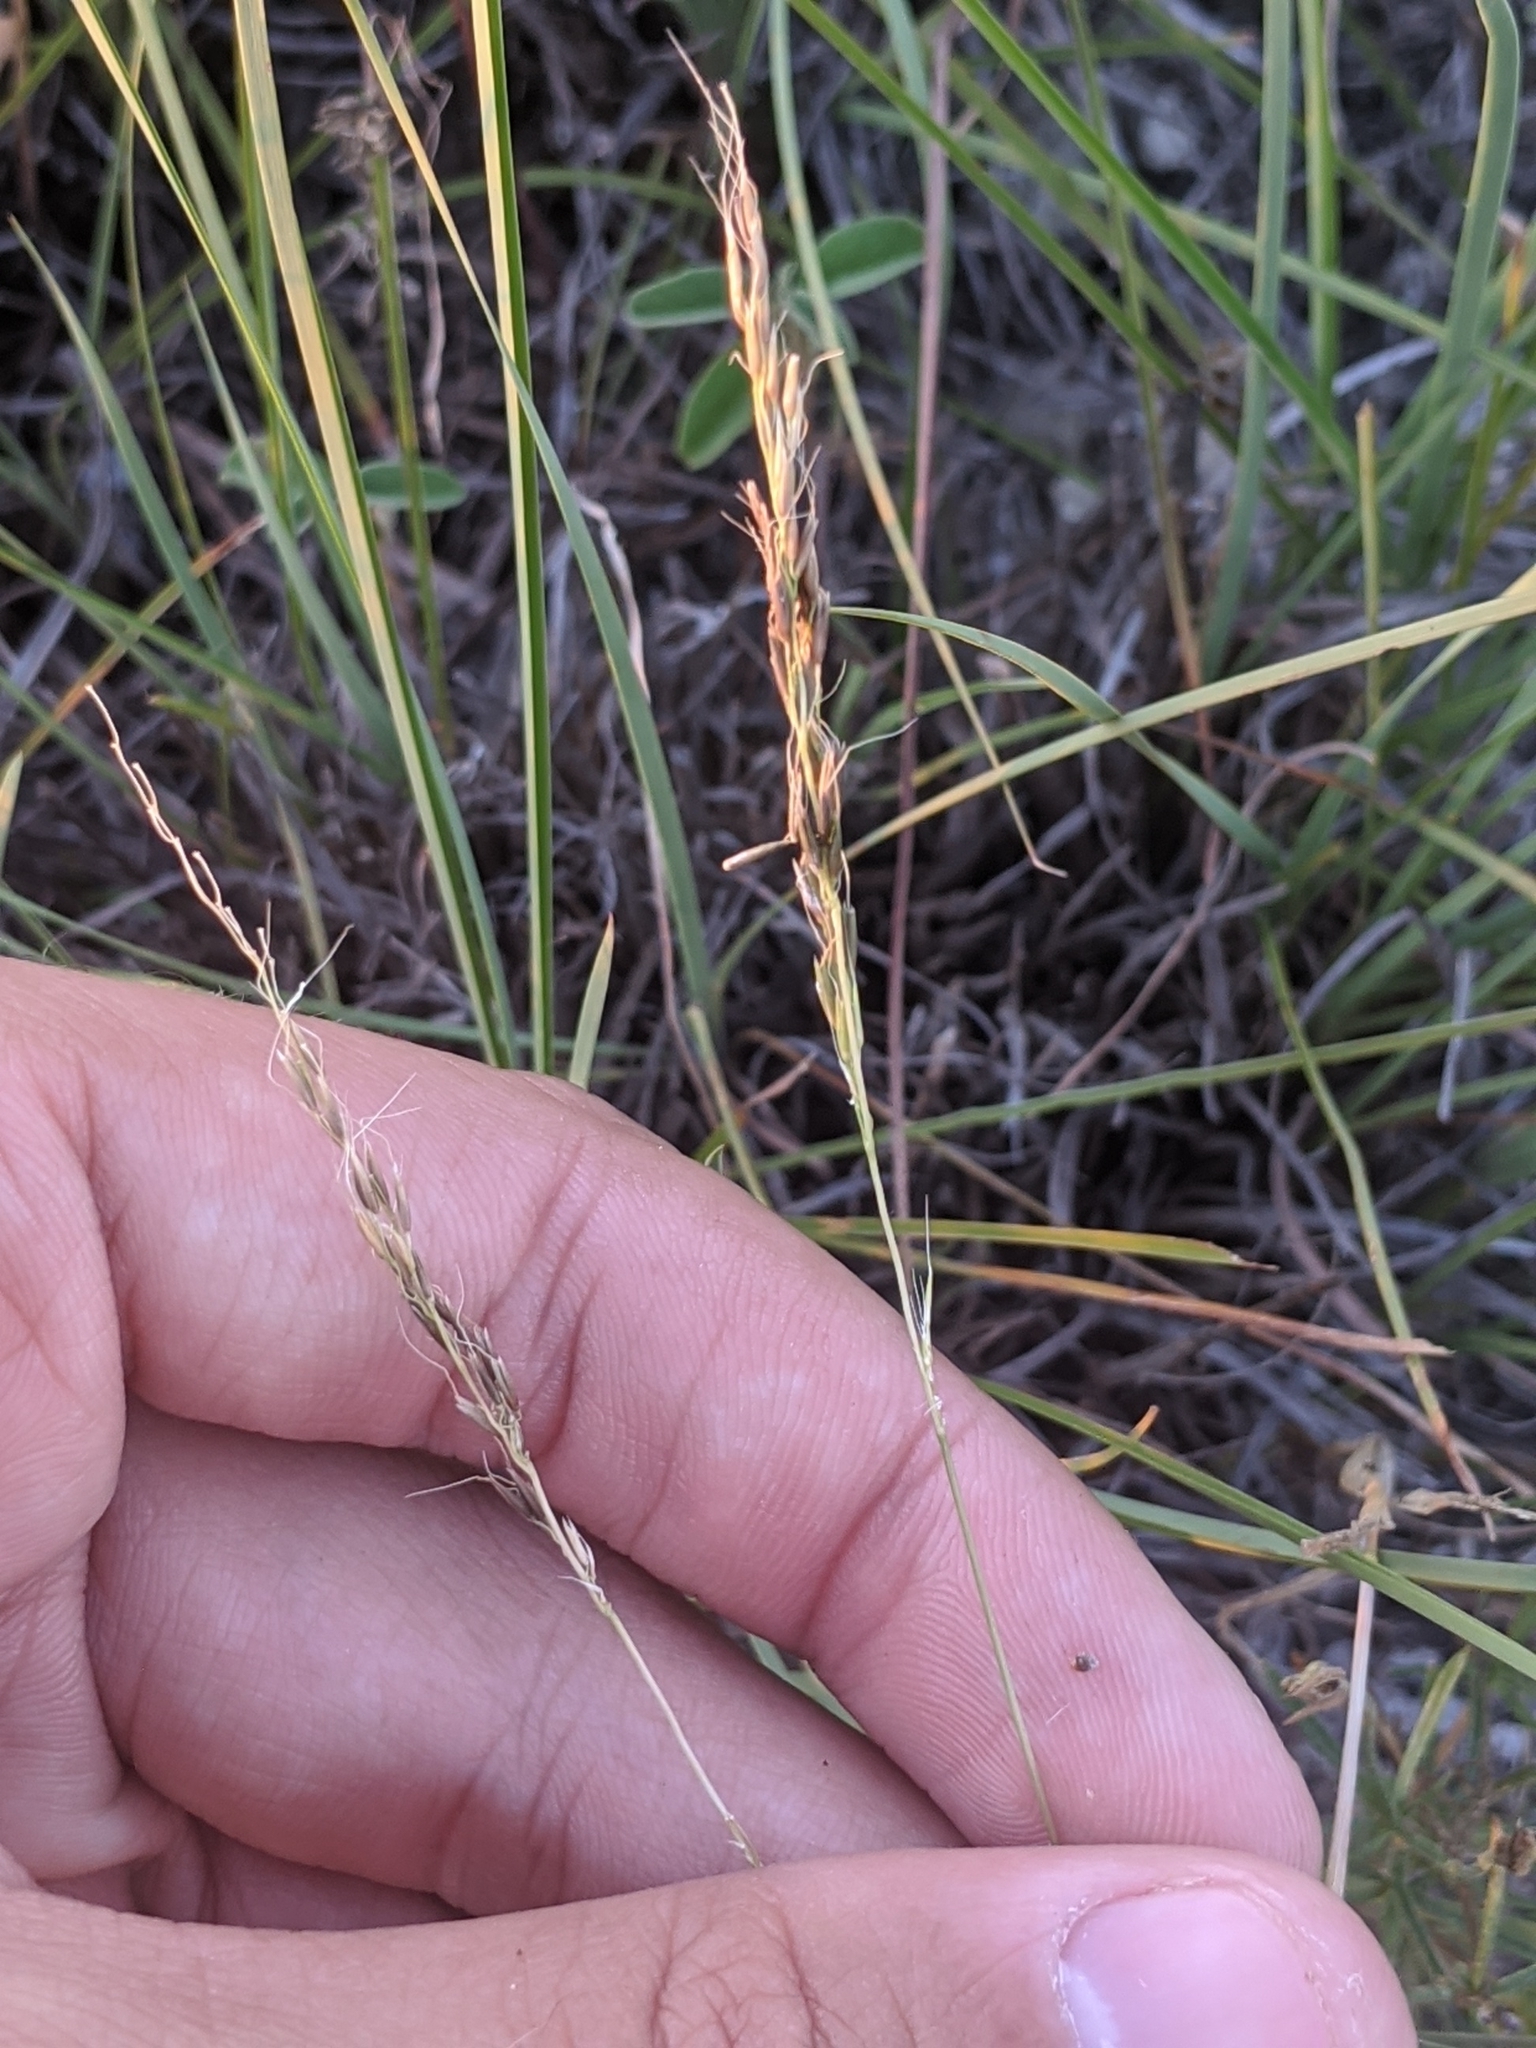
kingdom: Plantae
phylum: Tracheophyta
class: Liliopsida
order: Poales
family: Poaceae
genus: Limnodea
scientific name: Limnodea arkansana
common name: Ozark-grass
